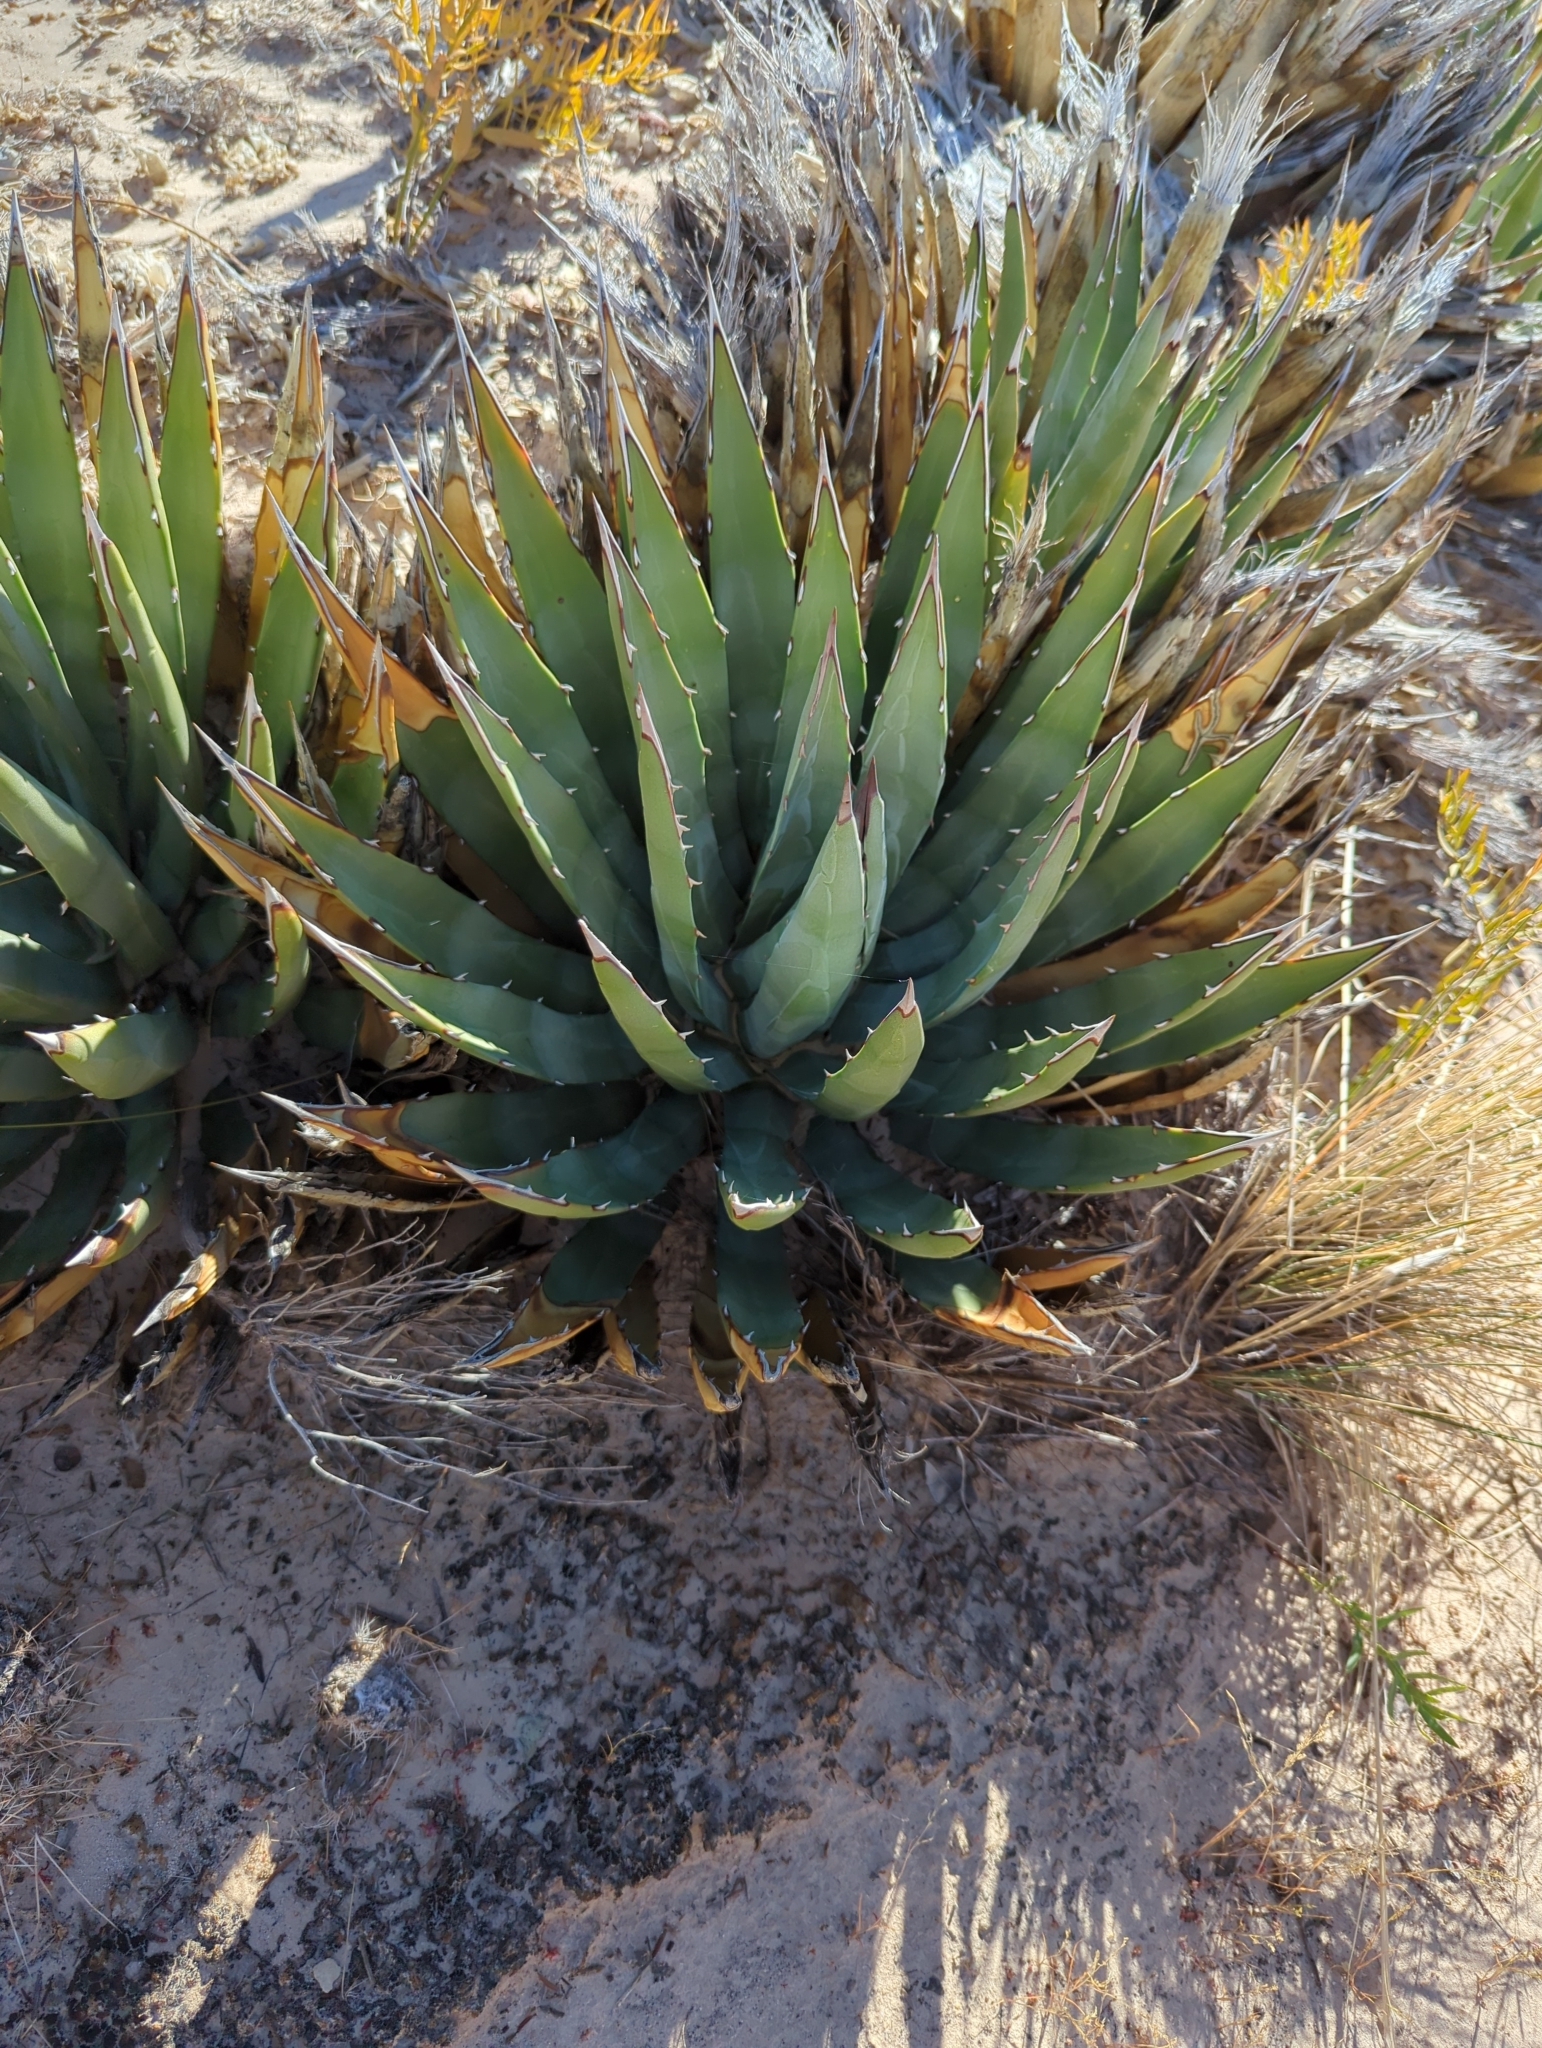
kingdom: Plantae
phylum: Tracheophyta
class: Liliopsida
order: Asparagales
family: Asparagaceae
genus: Agave
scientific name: Agave utahensis
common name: Utah agave
